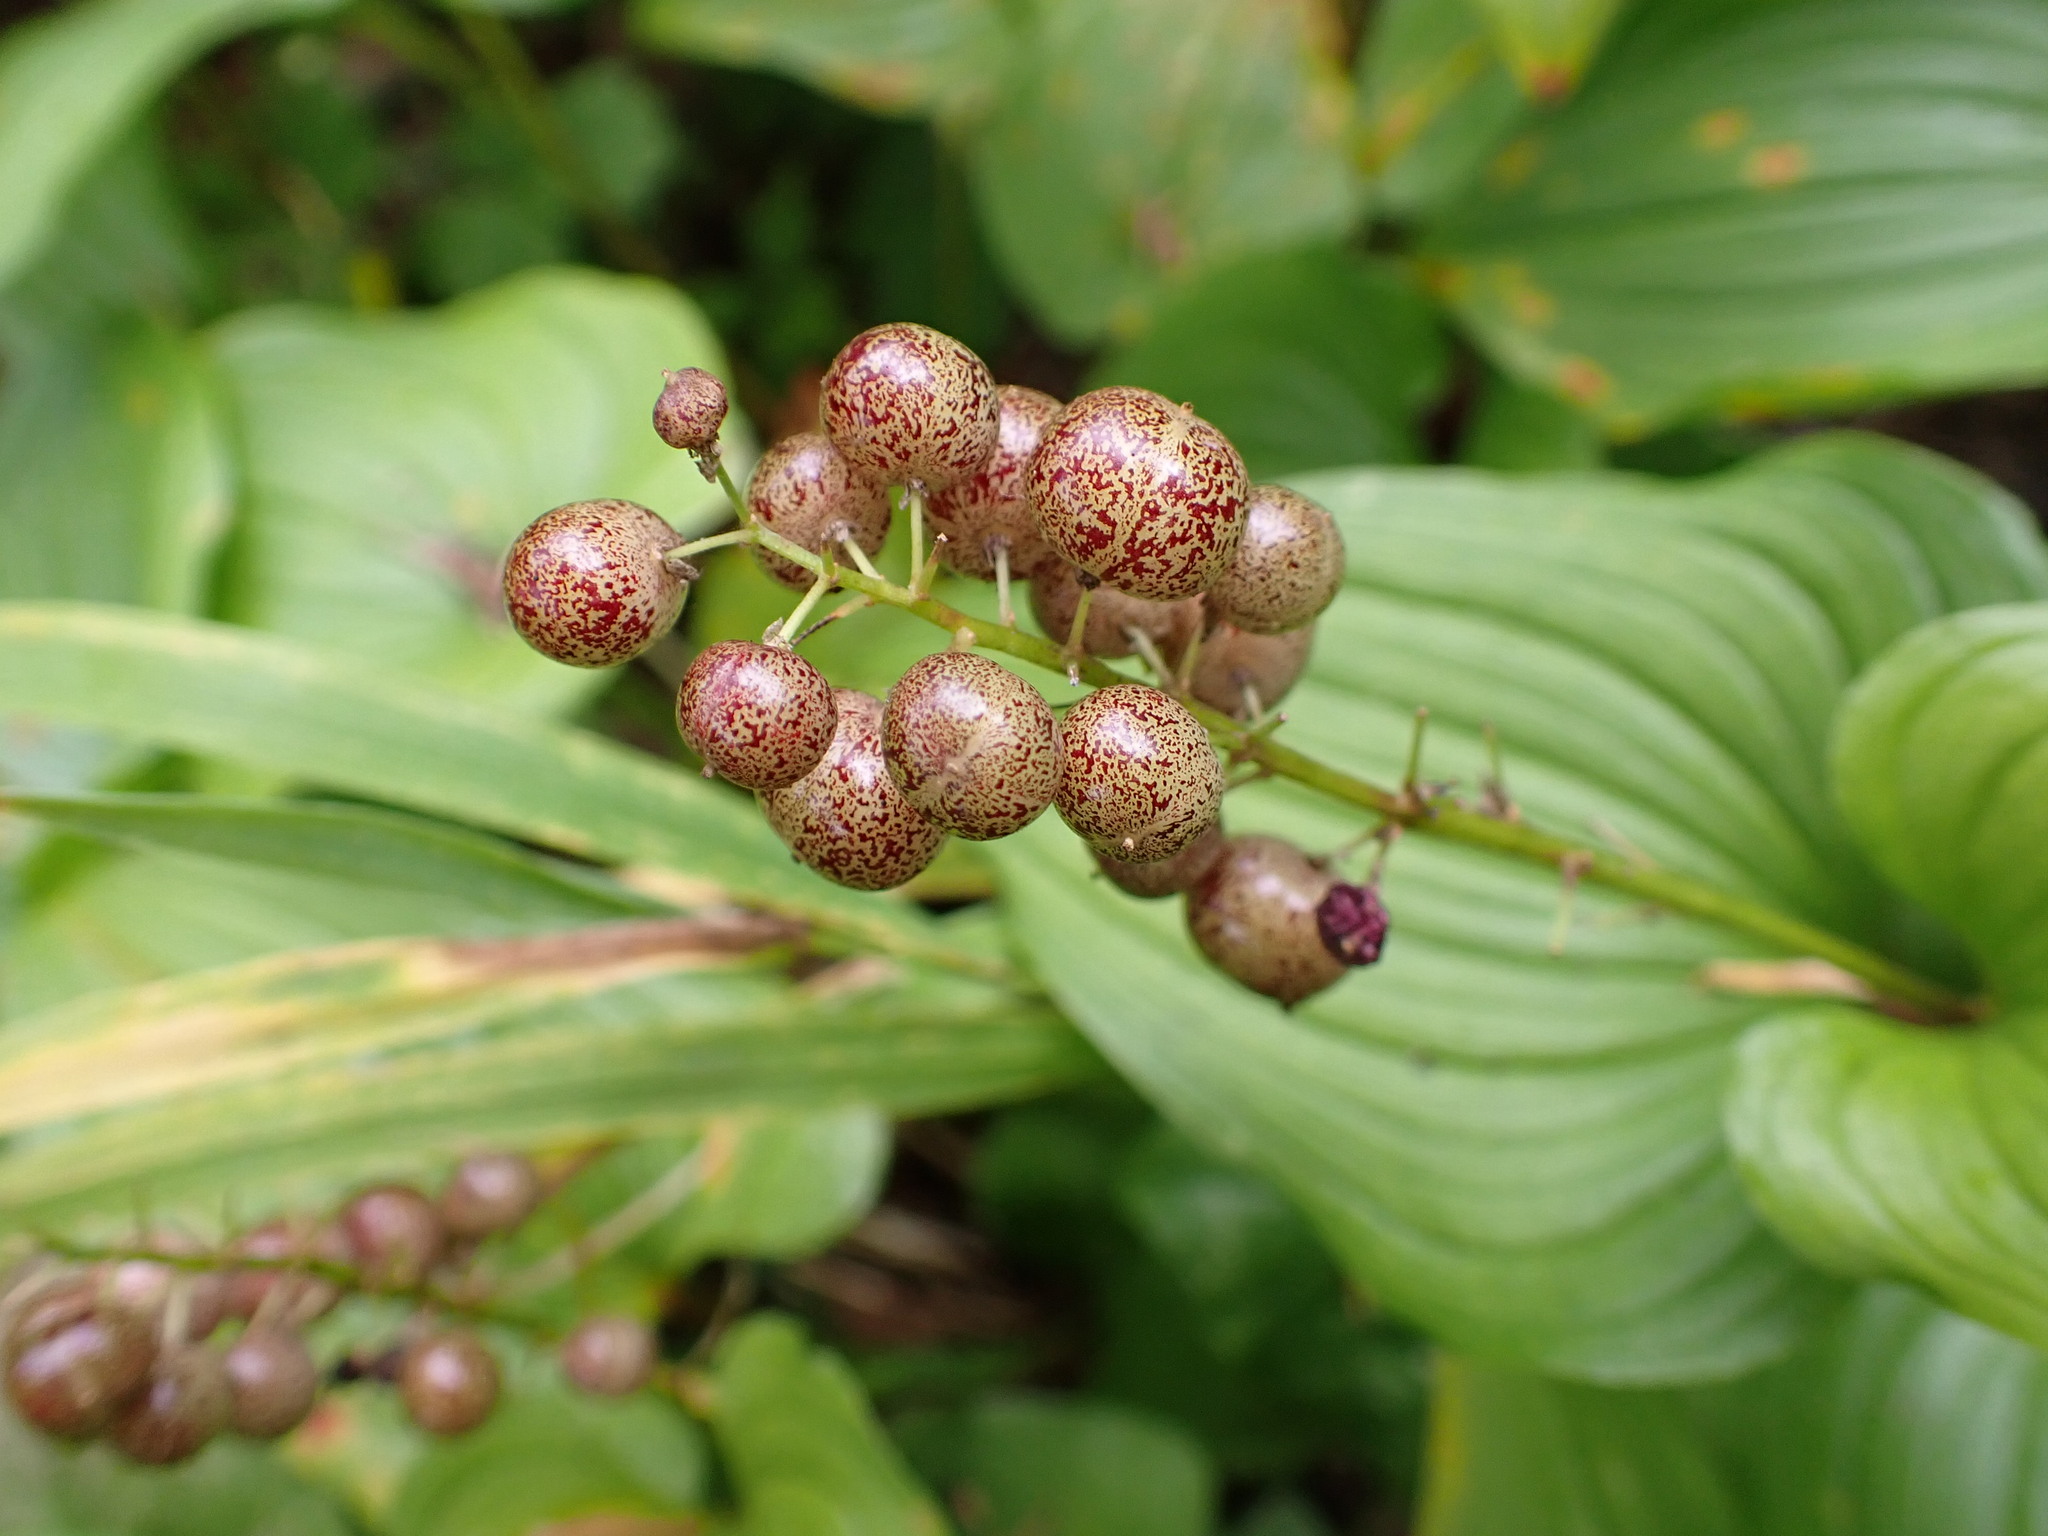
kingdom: Plantae
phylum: Tracheophyta
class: Liliopsida
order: Asparagales
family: Asparagaceae
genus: Maianthemum
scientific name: Maianthemum dilatatum
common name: False lily-of-the-valley
